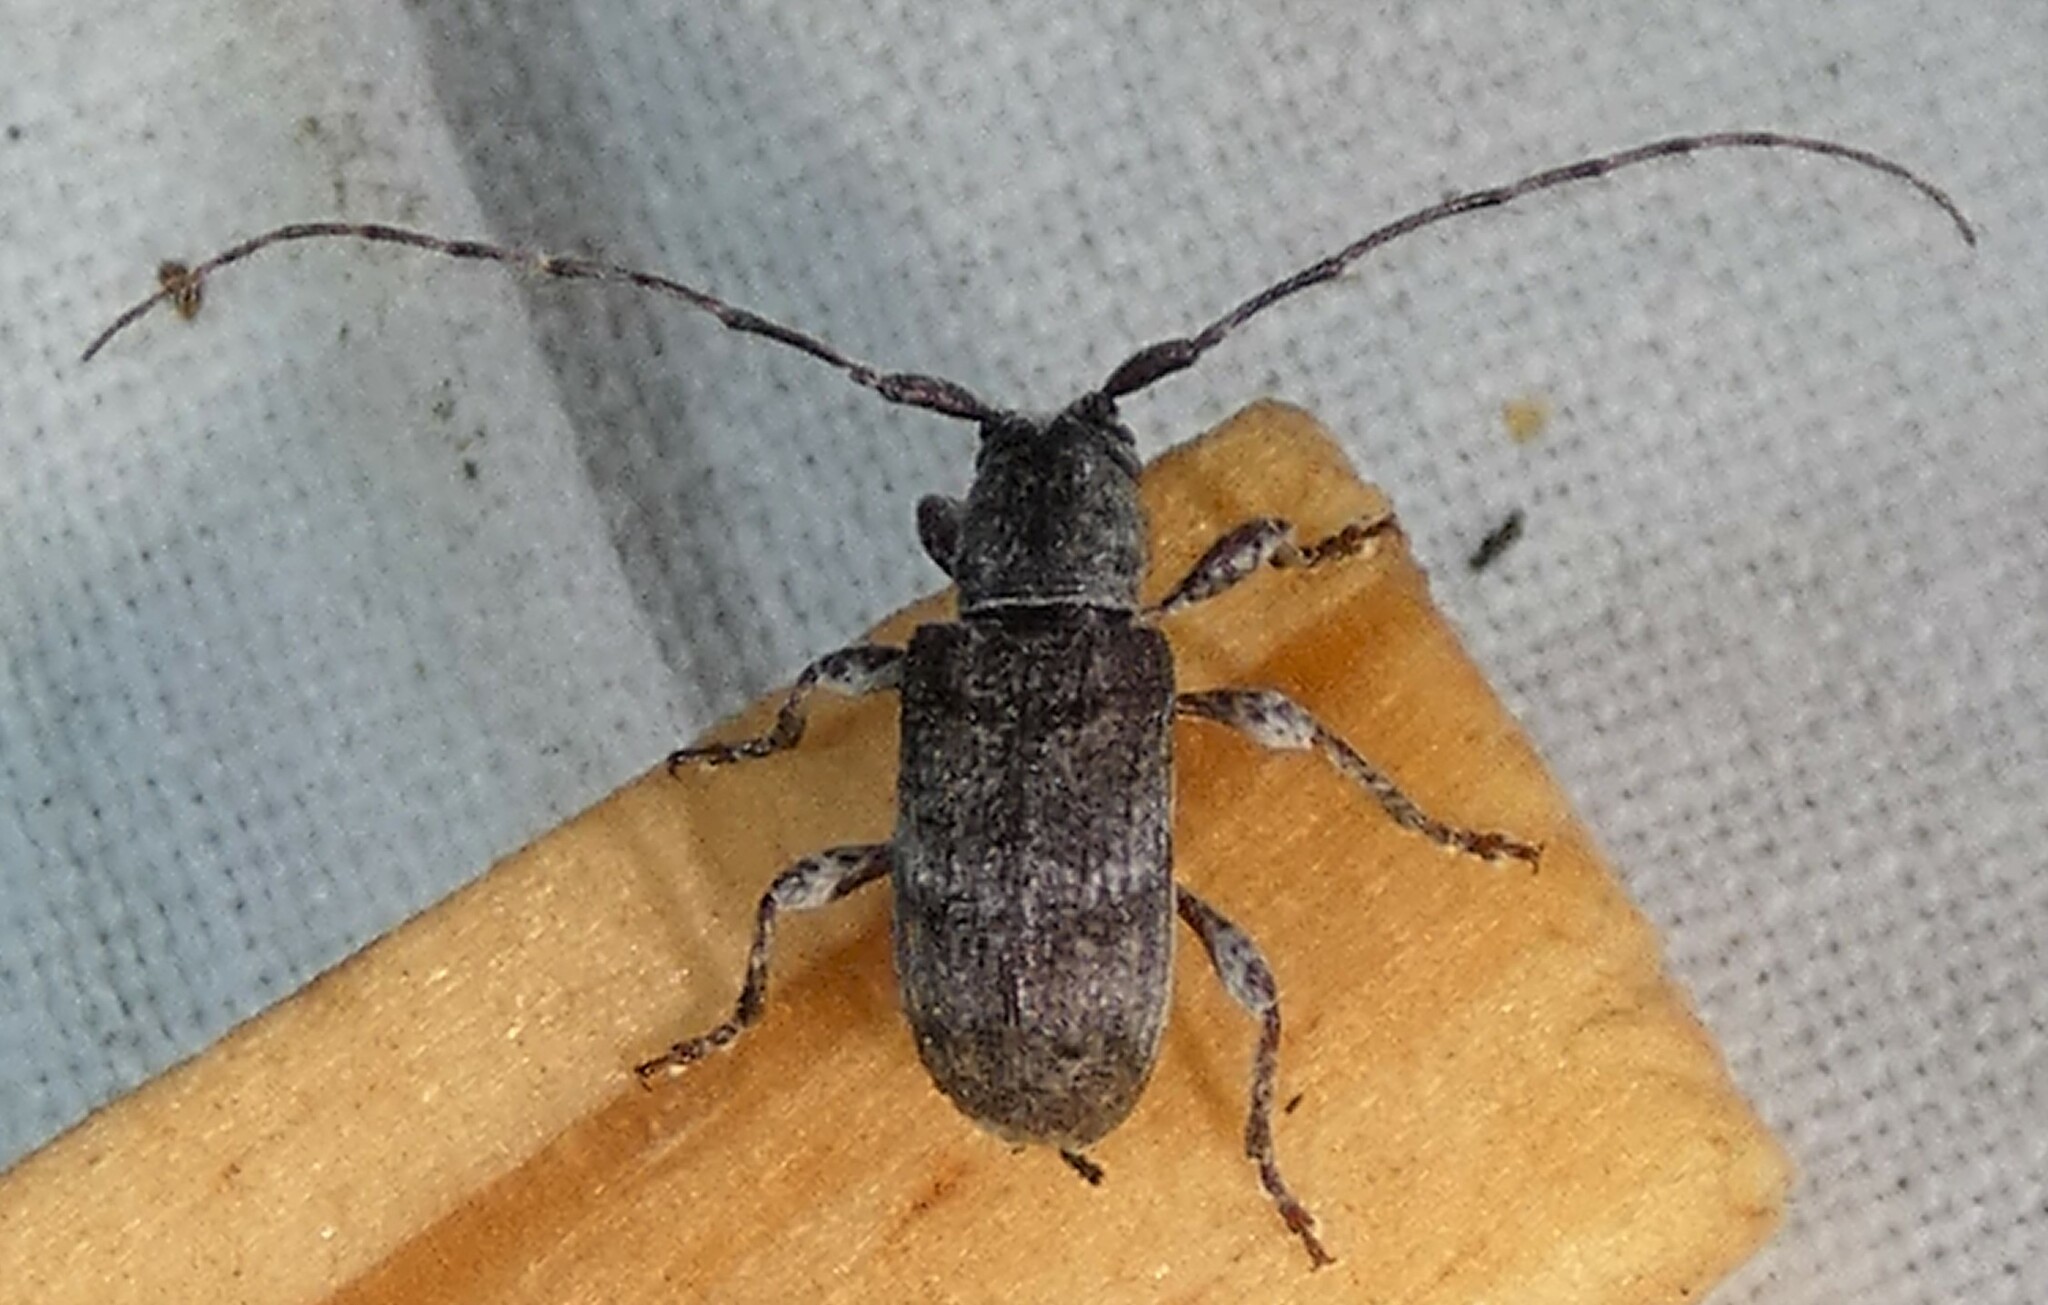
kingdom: Animalia
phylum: Arthropoda
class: Insecta
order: Coleoptera
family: Cerambycidae
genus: Ecyrus
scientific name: Ecyrus dasycerus
